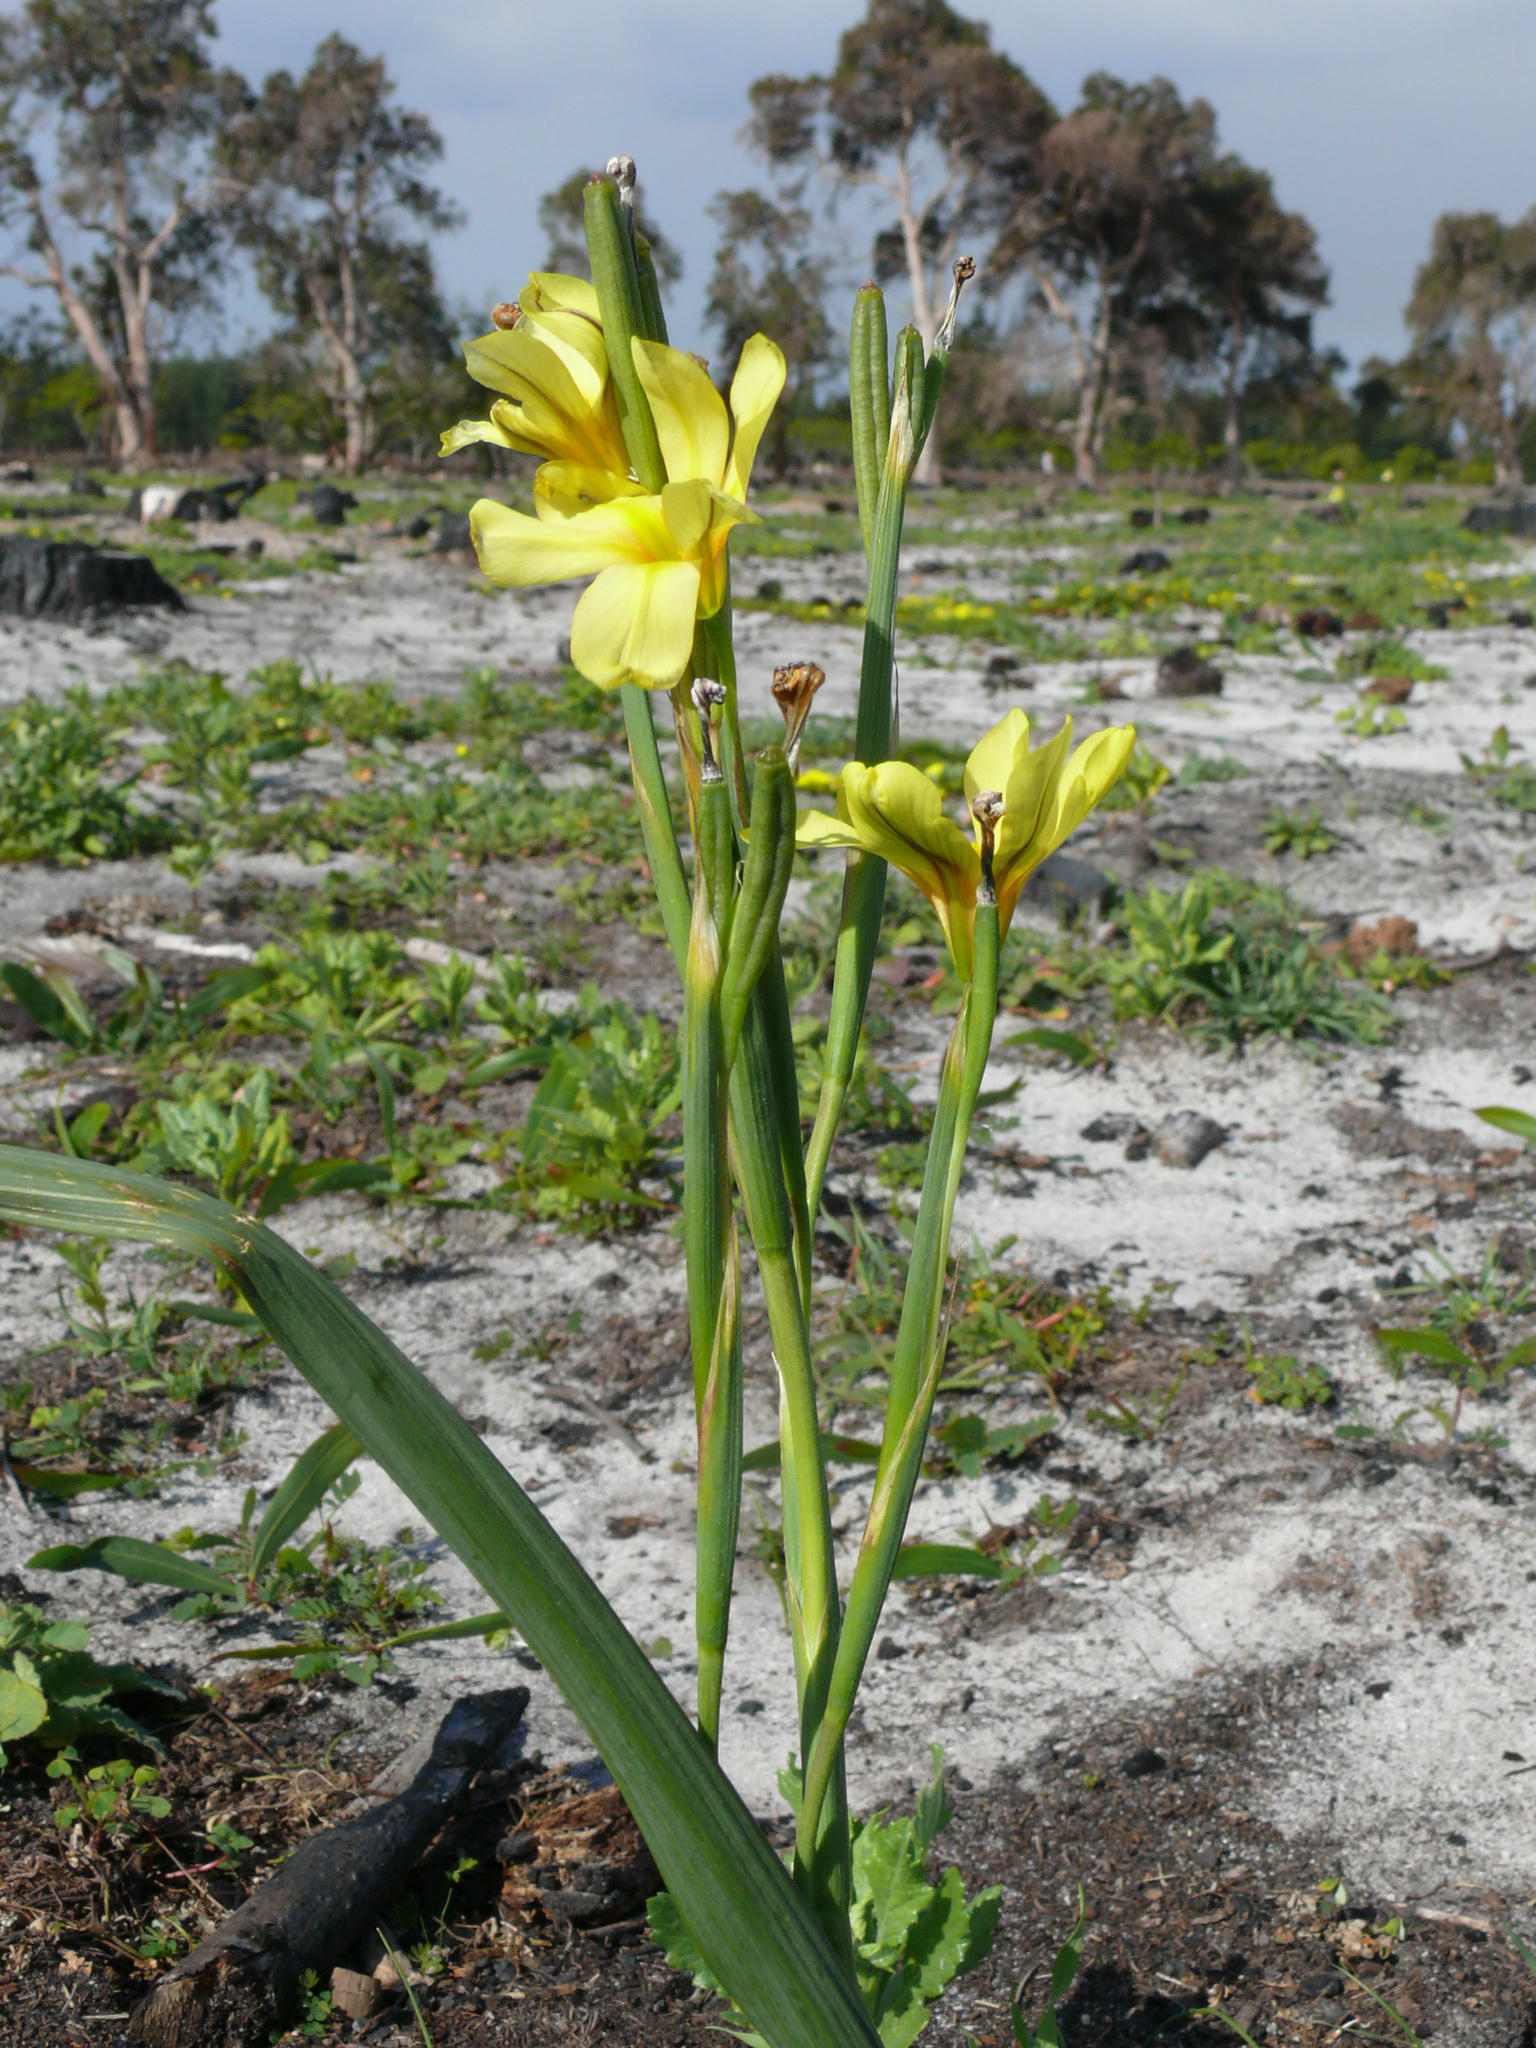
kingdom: Plantae
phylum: Tracheophyta
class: Liliopsida
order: Asparagales
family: Iridaceae
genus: Moraea
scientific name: Moraea collina
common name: Cape-tulip
